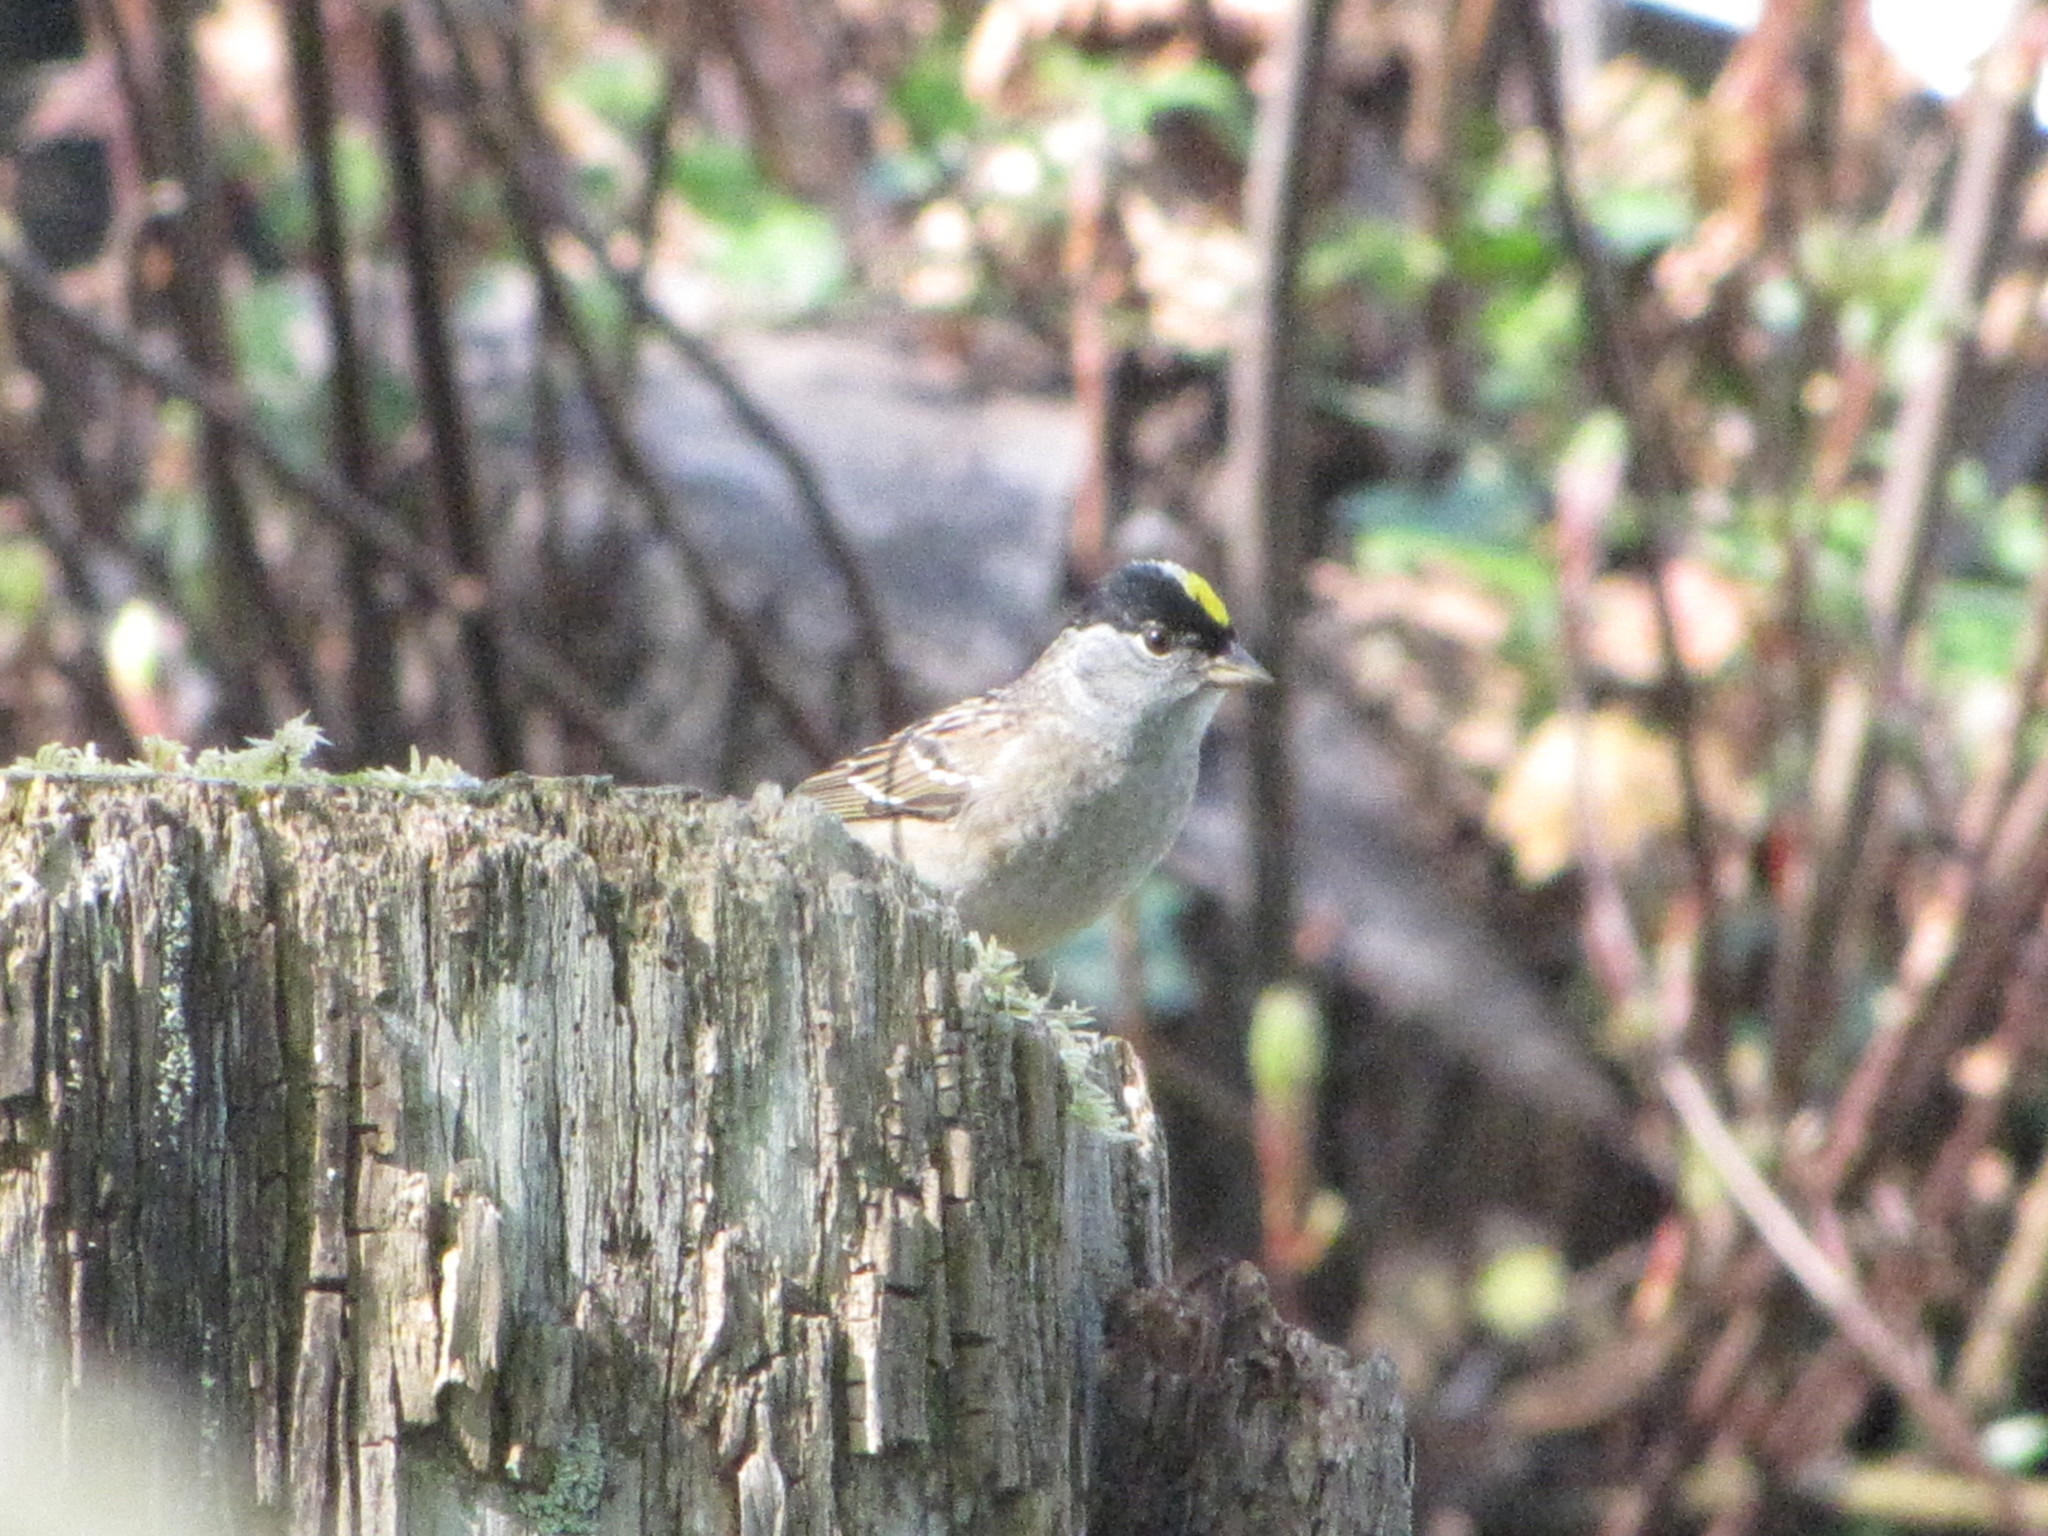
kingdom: Animalia
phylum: Chordata
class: Aves
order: Passeriformes
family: Passerellidae
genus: Zonotrichia
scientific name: Zonotrichia atricapilla
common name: Golden-crowned sparrow
